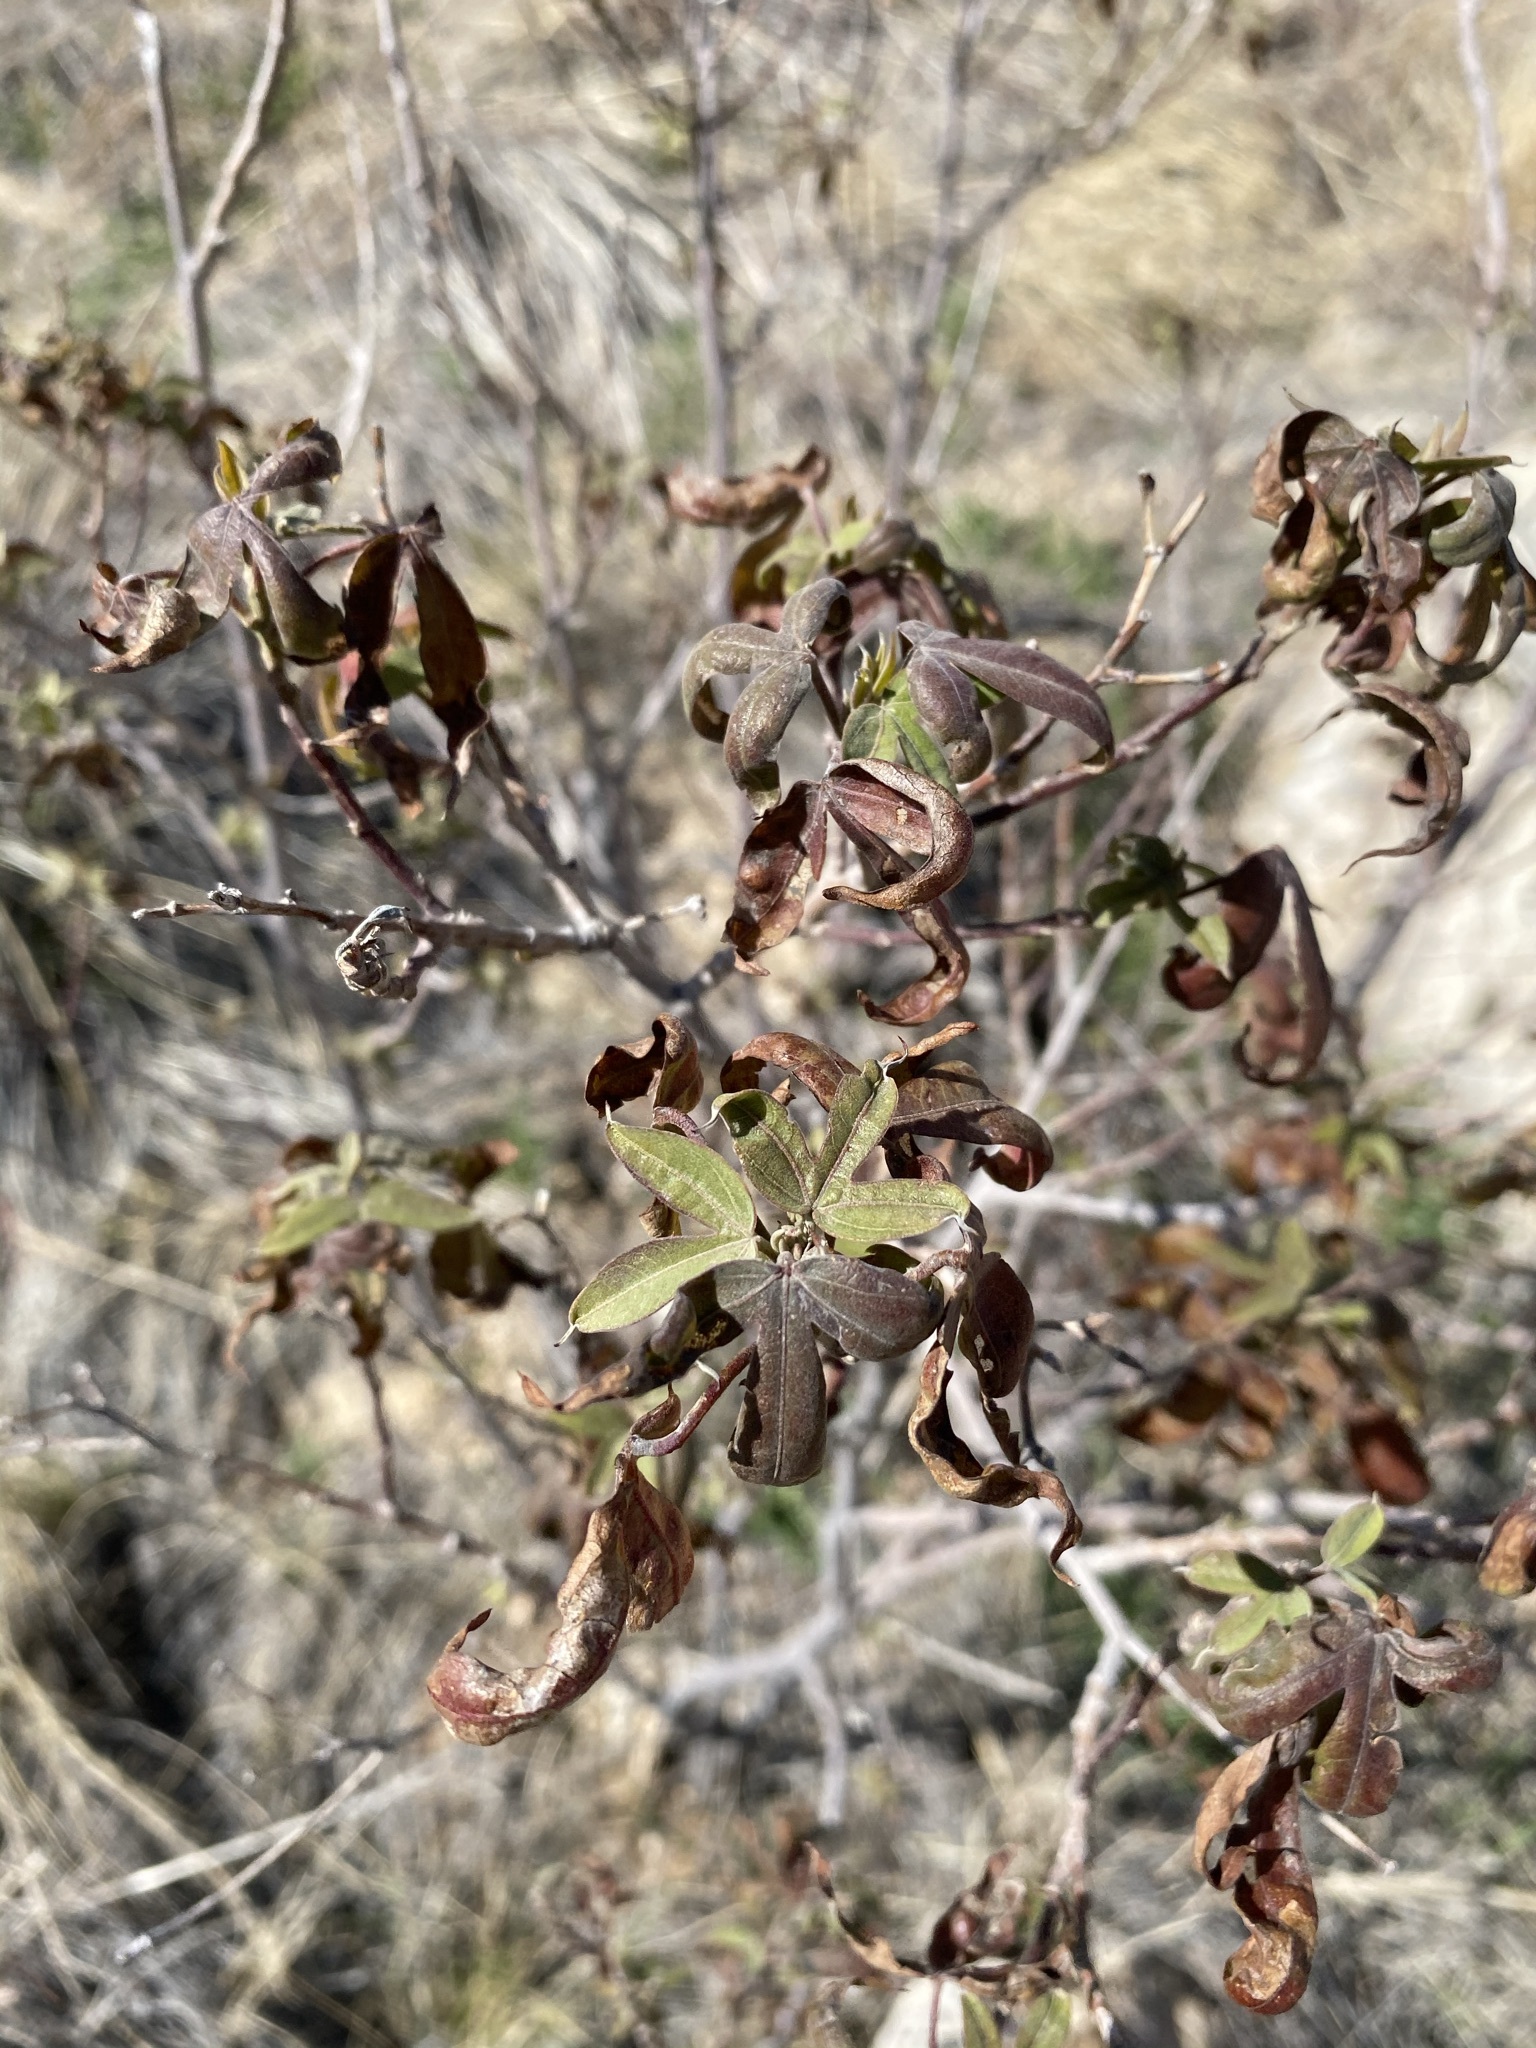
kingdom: Plantae
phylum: Tracheophyta
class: Magnoliopsida
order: Malvales
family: Malvaceae
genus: Gossypium
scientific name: Gossypium thurberi
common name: Desert cotton
